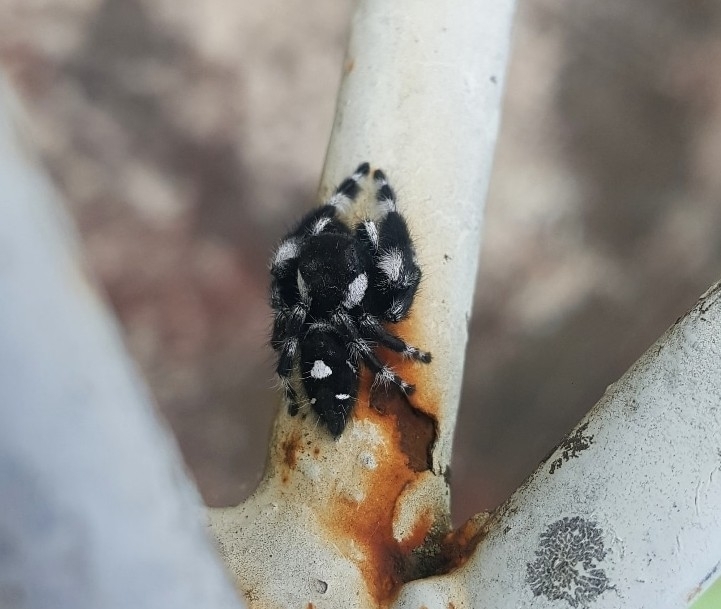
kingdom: Animalia
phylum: Arthropoda
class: Arachnida
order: Araneae
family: Salticidae
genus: Phidippus
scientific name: Phidippus audax
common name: Bold jumper
